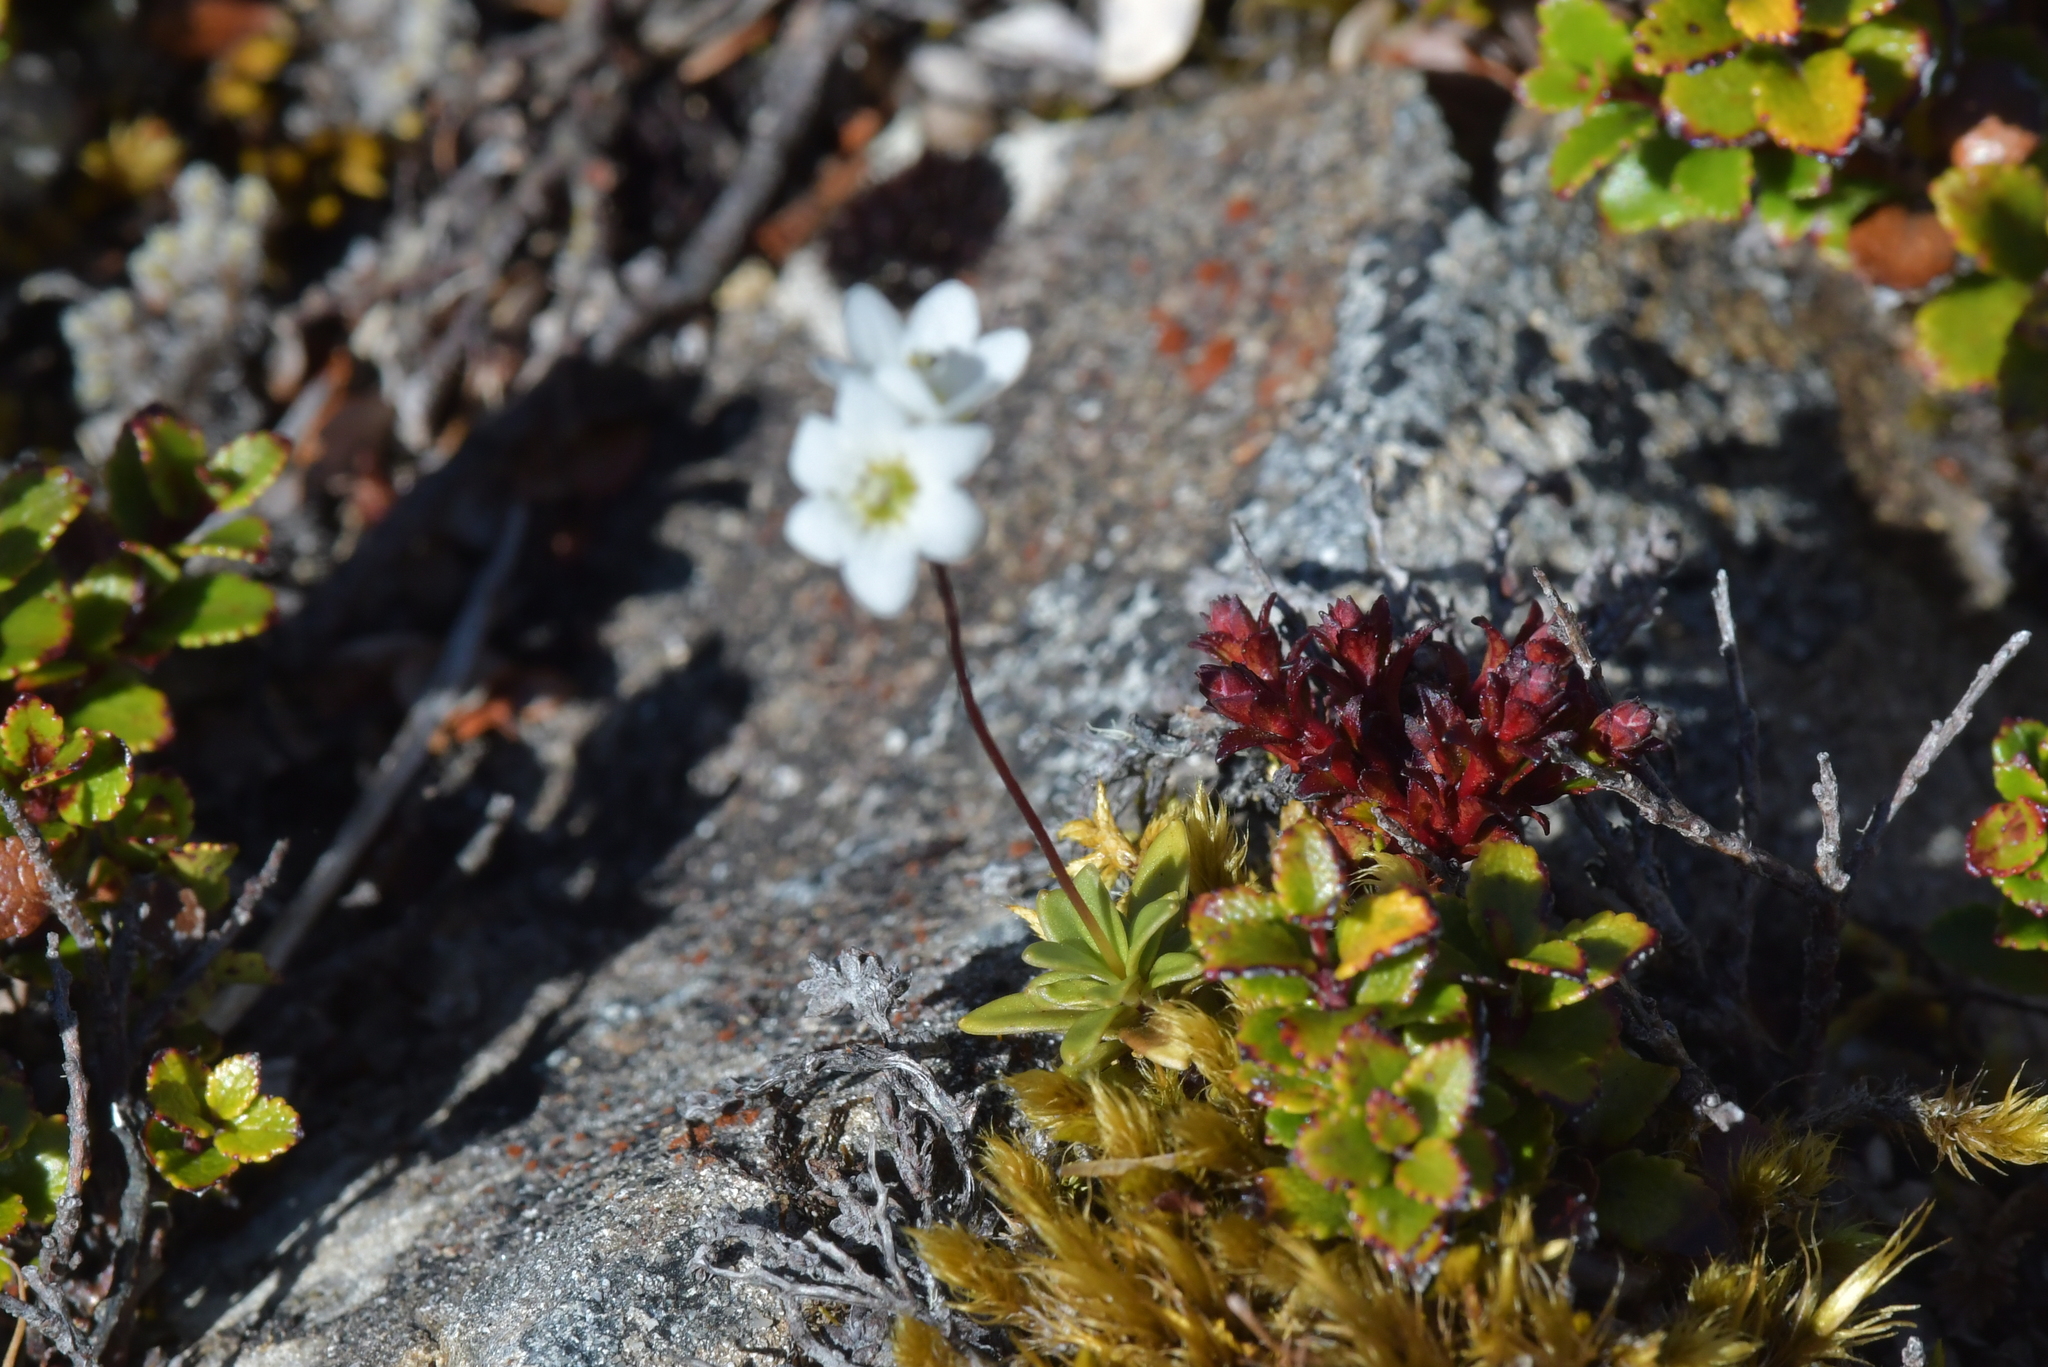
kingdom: Plantae
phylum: Tracheophyta
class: Magnoliopsida
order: Asterales
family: Stylidiaceae
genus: Forstera
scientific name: Forstera tenella
